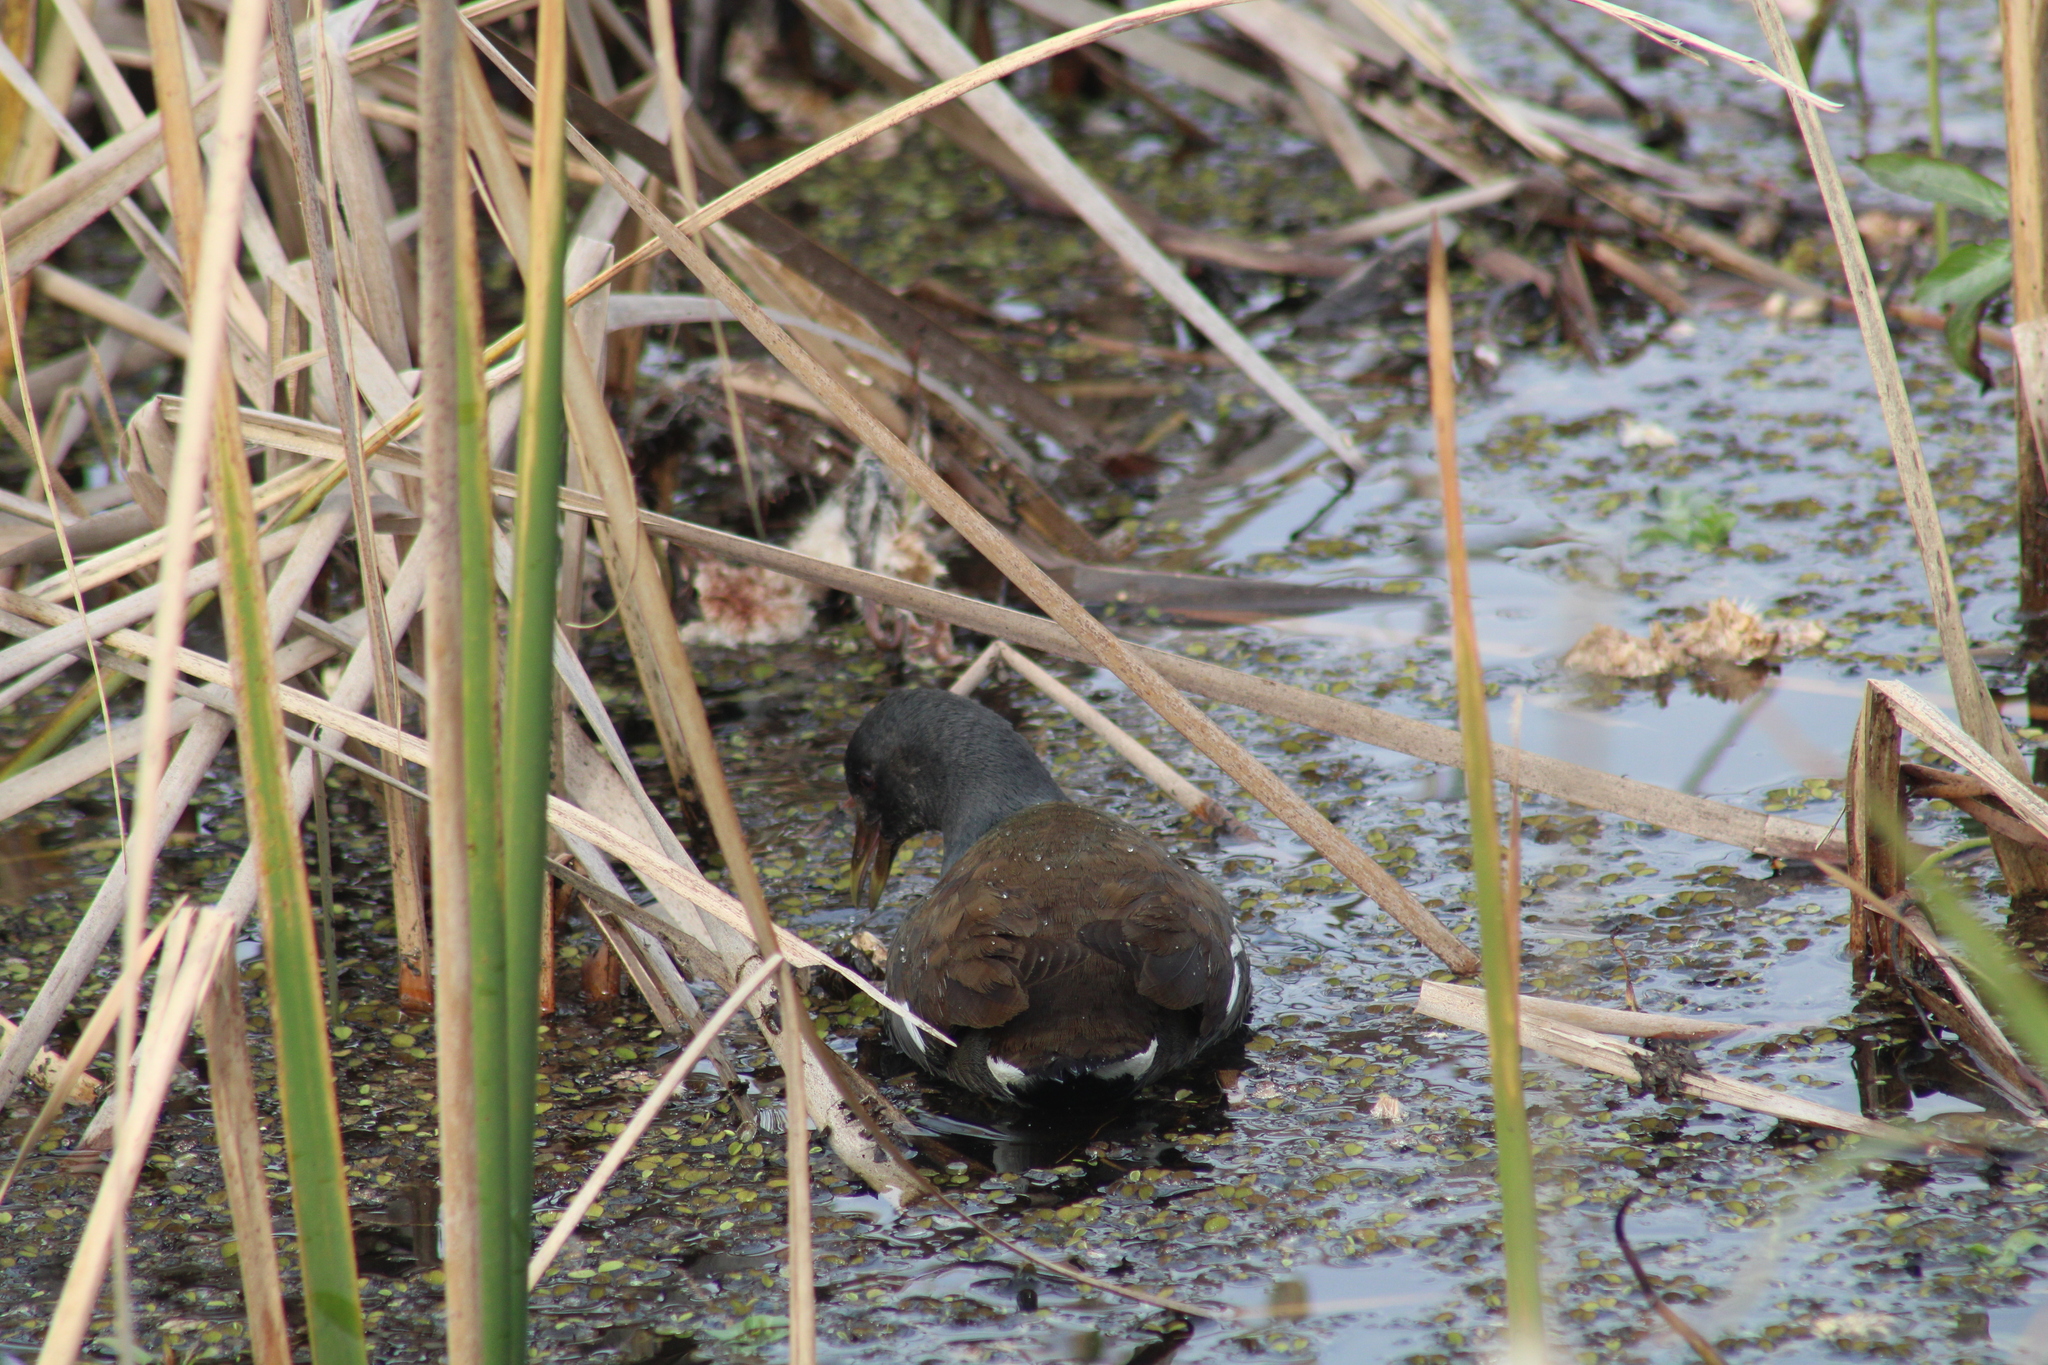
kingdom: Animalia
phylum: Chordata
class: Aves
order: Gruiformes
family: Rallidae
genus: Gallinula
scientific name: Gallinula chloropus
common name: Common moorhen
